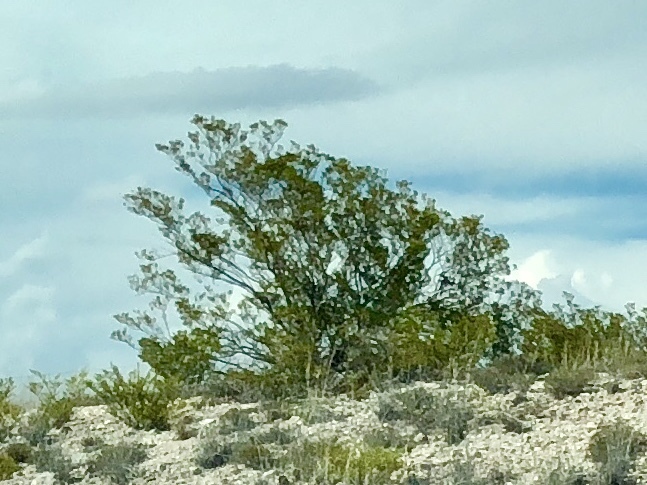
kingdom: Plantae
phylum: Tracheophyta
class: Magnoliopsida
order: Zygophyllales
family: Zygophyllaceae
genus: Larrea
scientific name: Larrea tridentata
